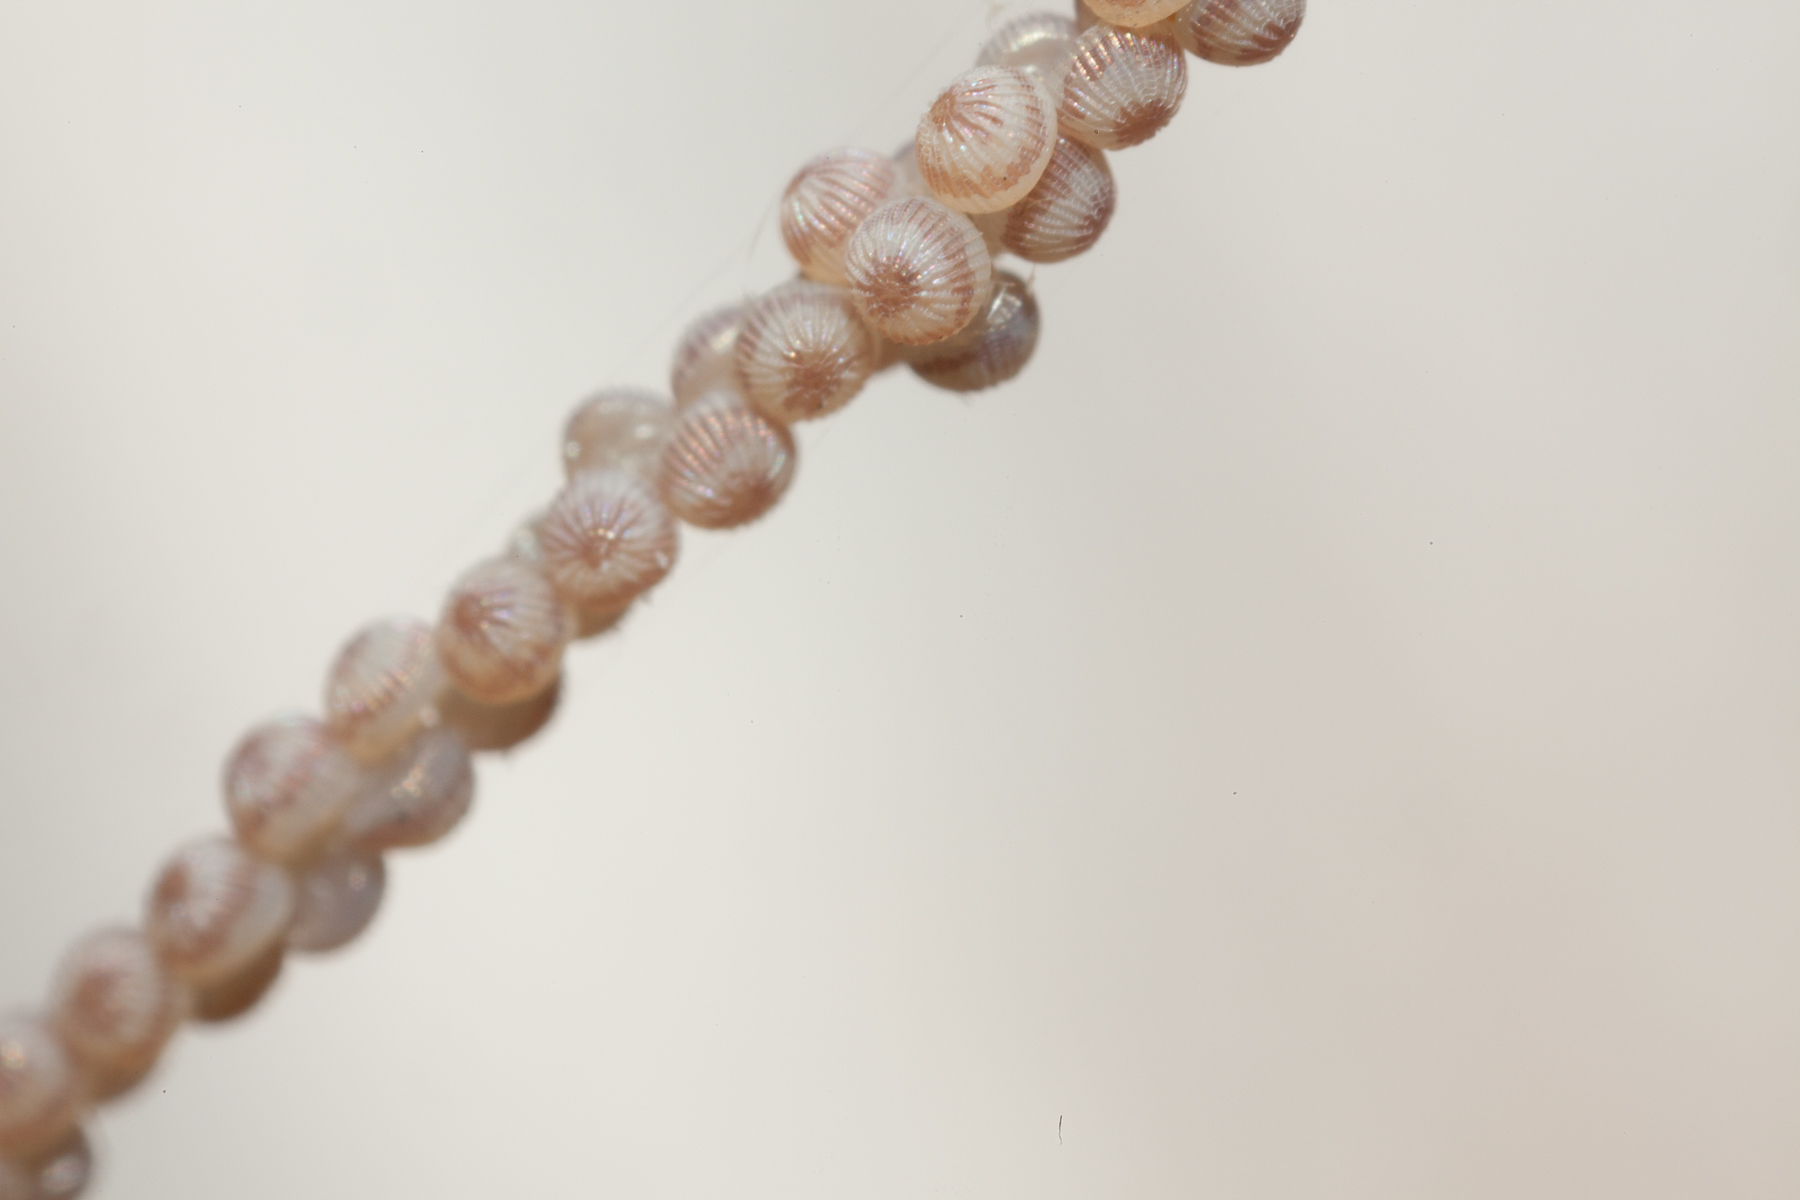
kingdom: Animalia
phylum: Arthropoda
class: Insecta
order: Lepidoptera
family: Noctuidae
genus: Anicla
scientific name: Anicla infecta
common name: Green cutworm
